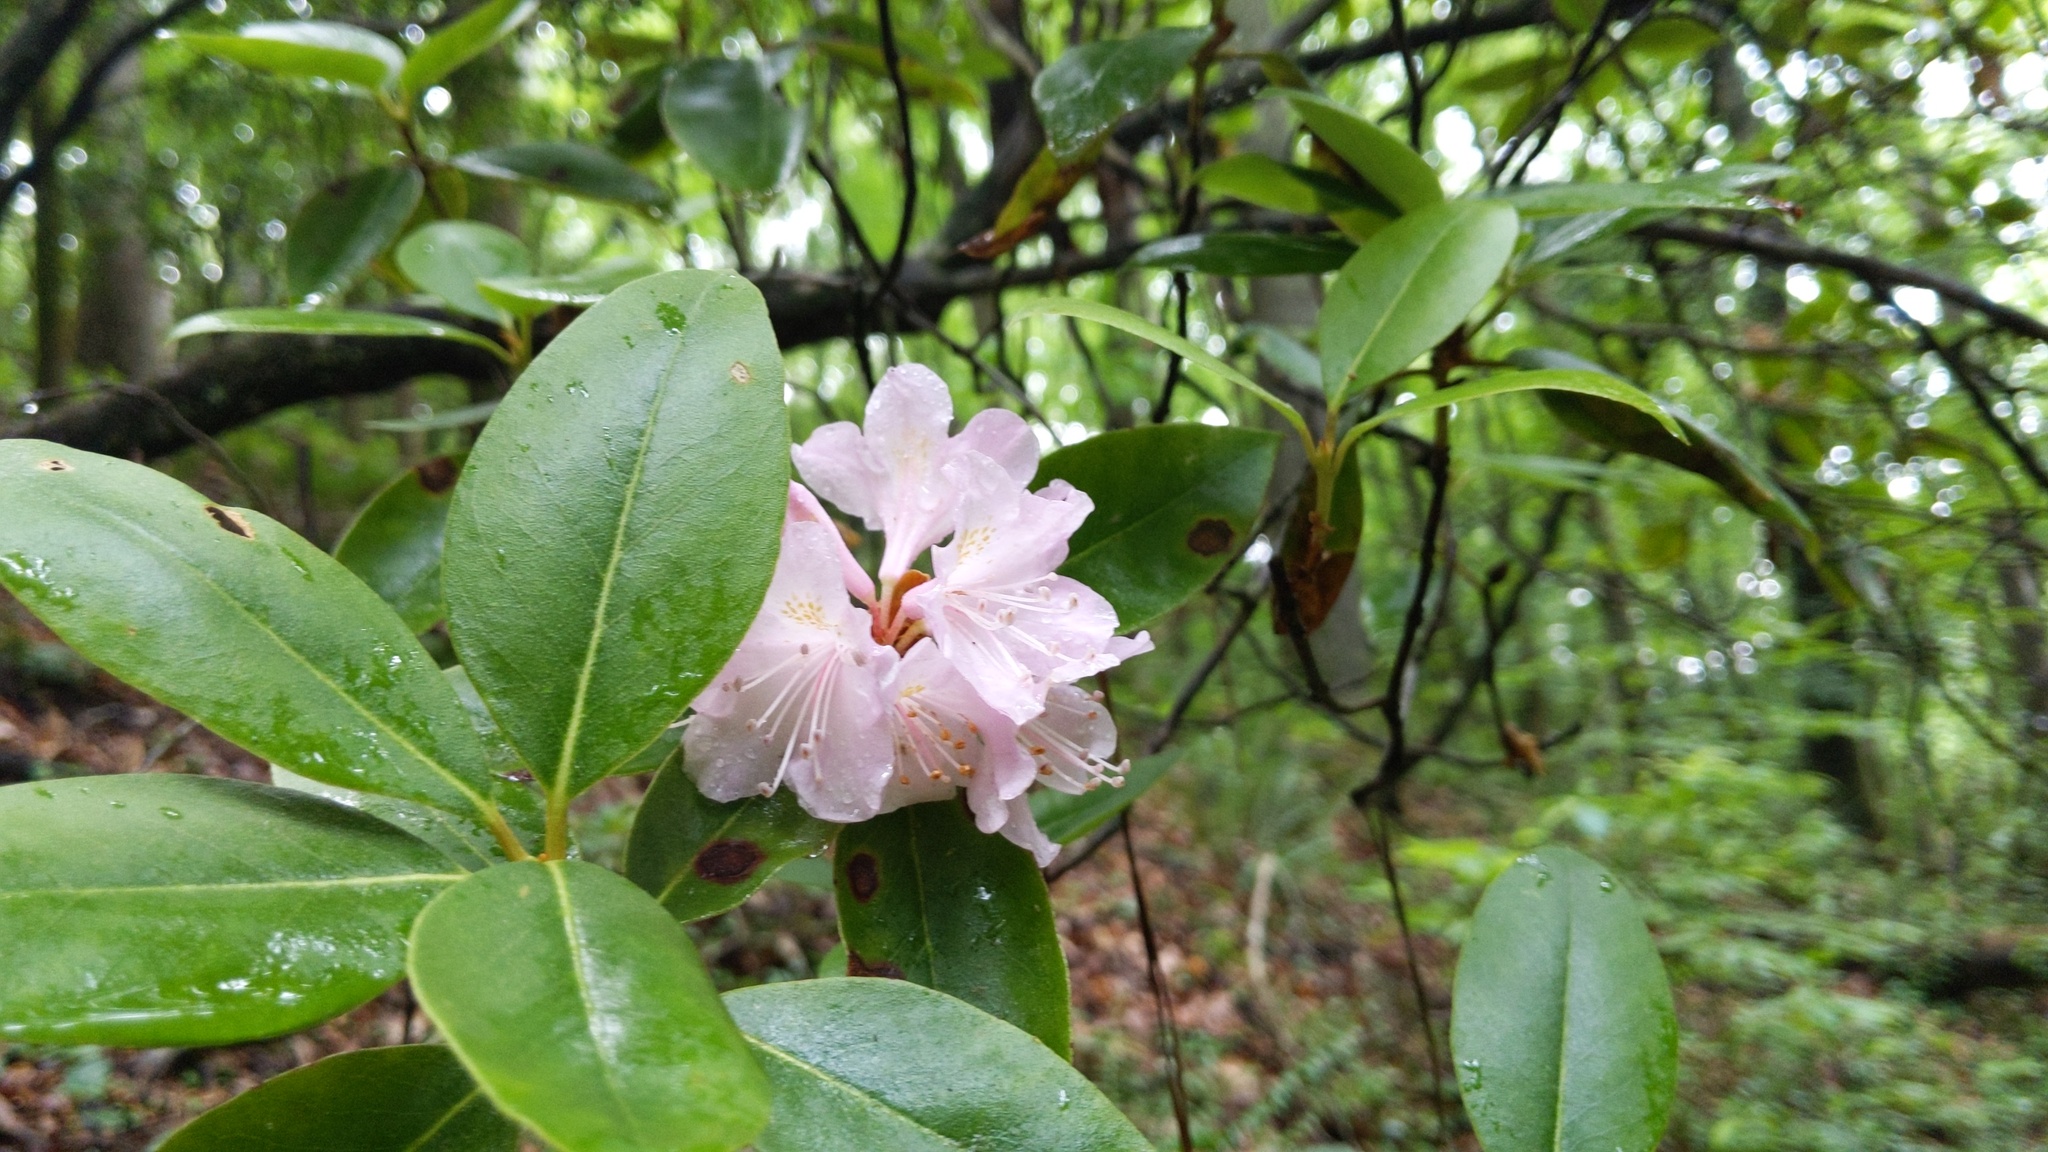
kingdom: Plantae
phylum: Tracheophyta
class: Magnoliopsida
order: Ericales
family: Ericaceae
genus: Rhododendron
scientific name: Rhododendron minus
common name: Piedmont rhododendron
